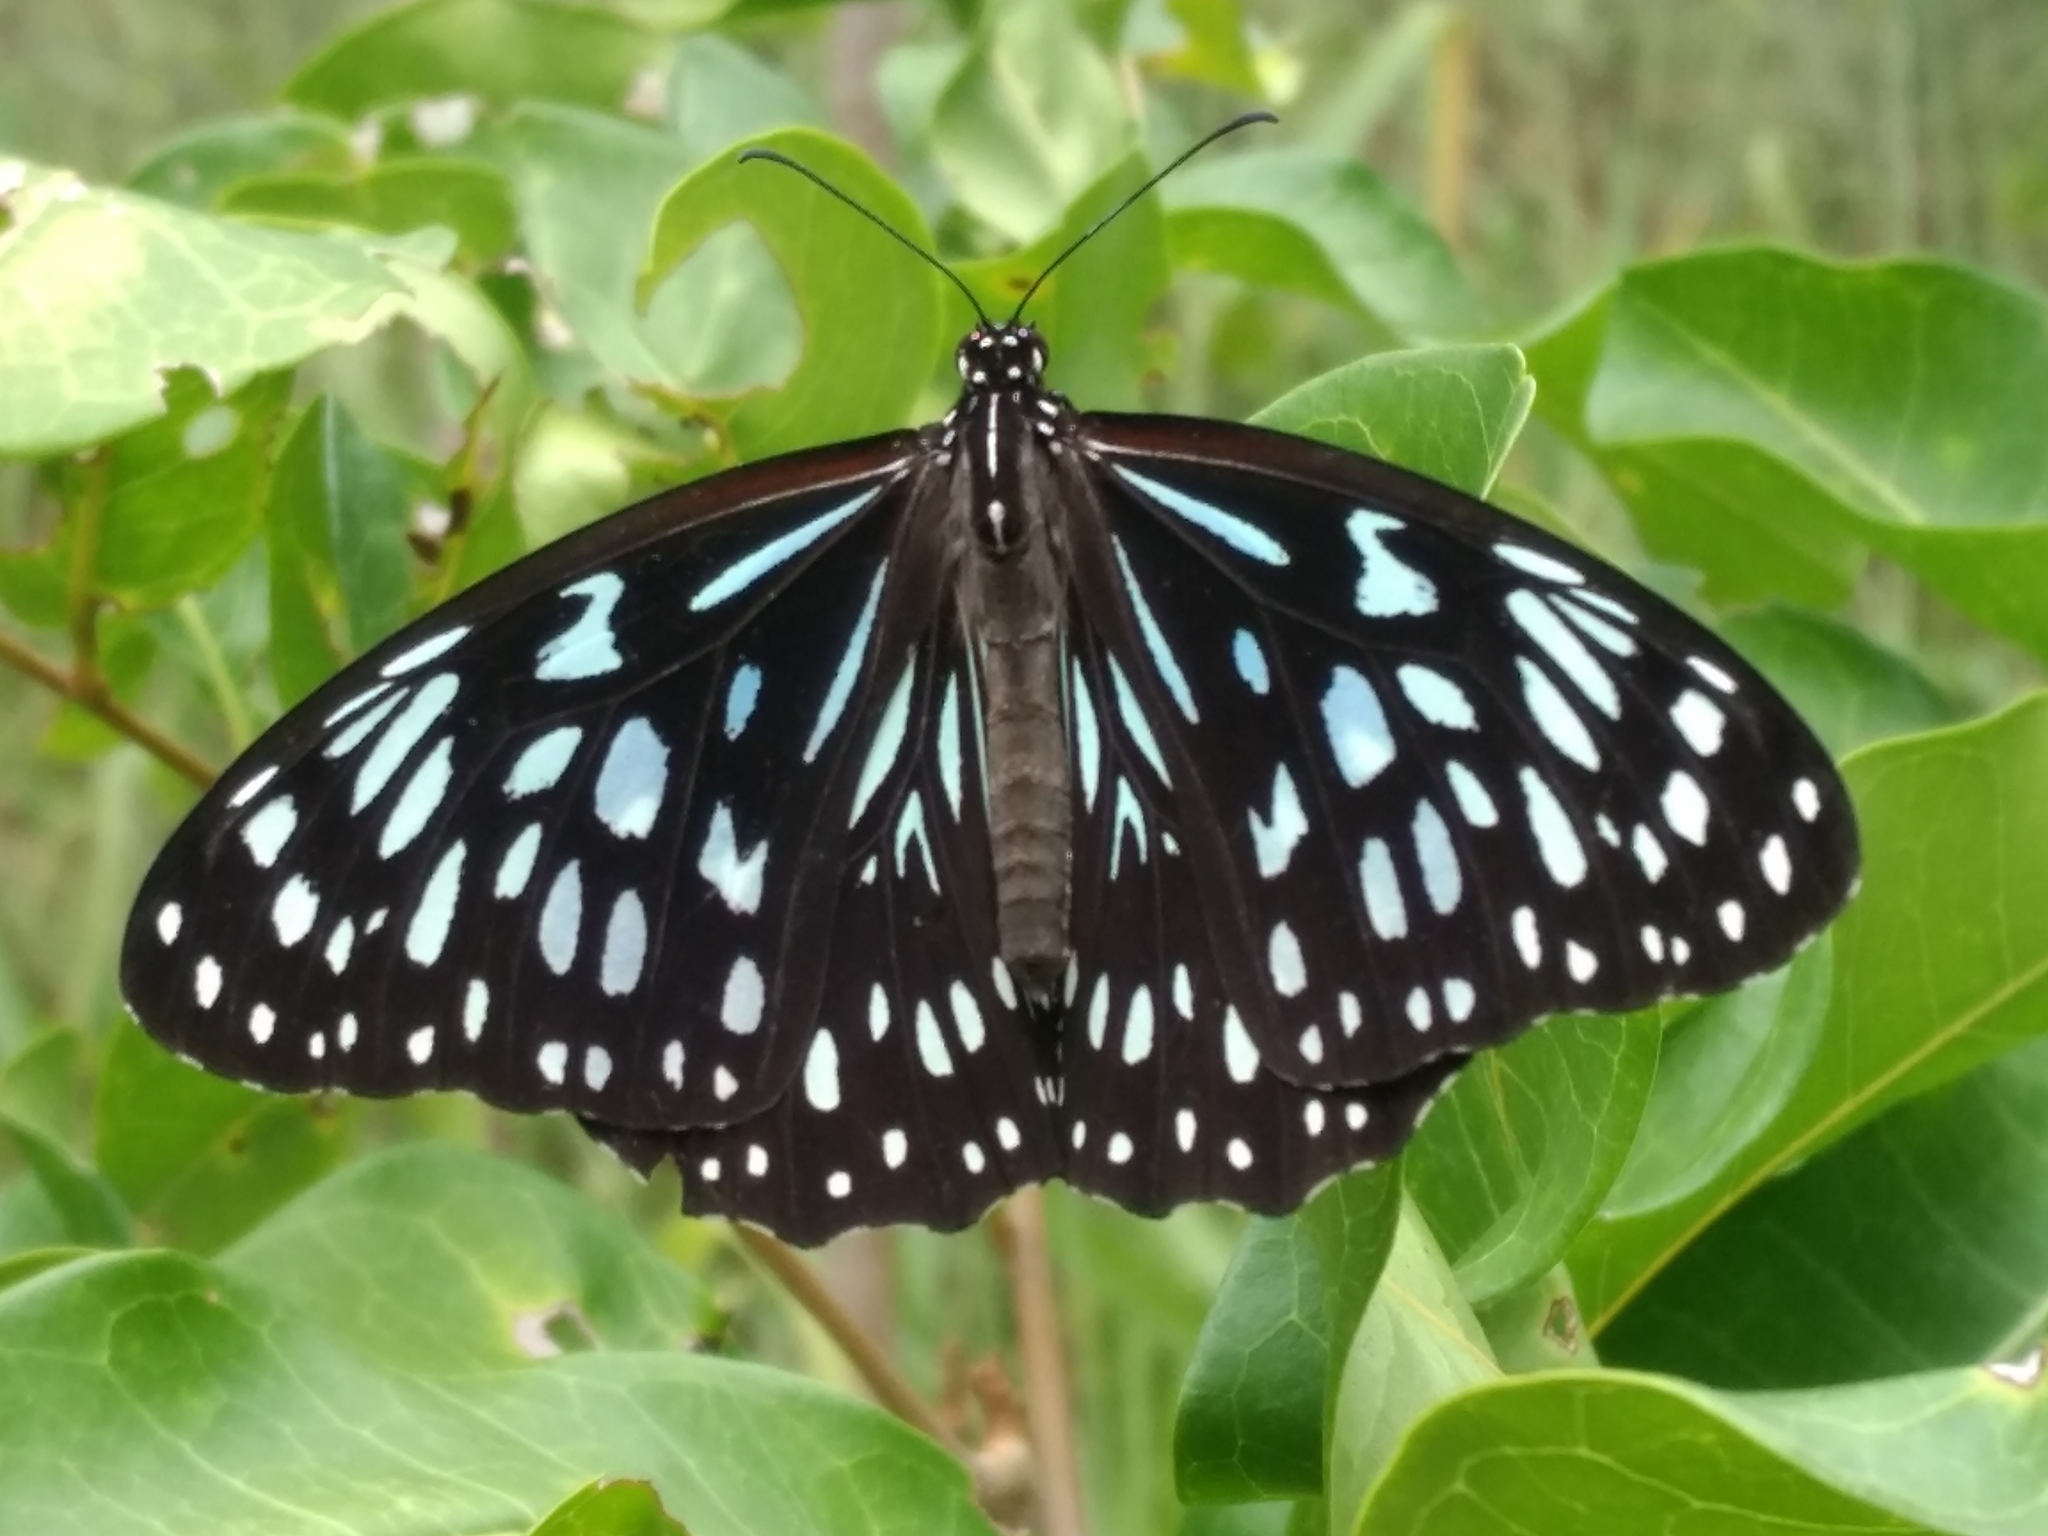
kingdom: Animalia
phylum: Arthropoda
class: Insecta
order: Lepidoptera
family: Nymphalidae
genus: Tirumala
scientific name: Tirumala hamata
